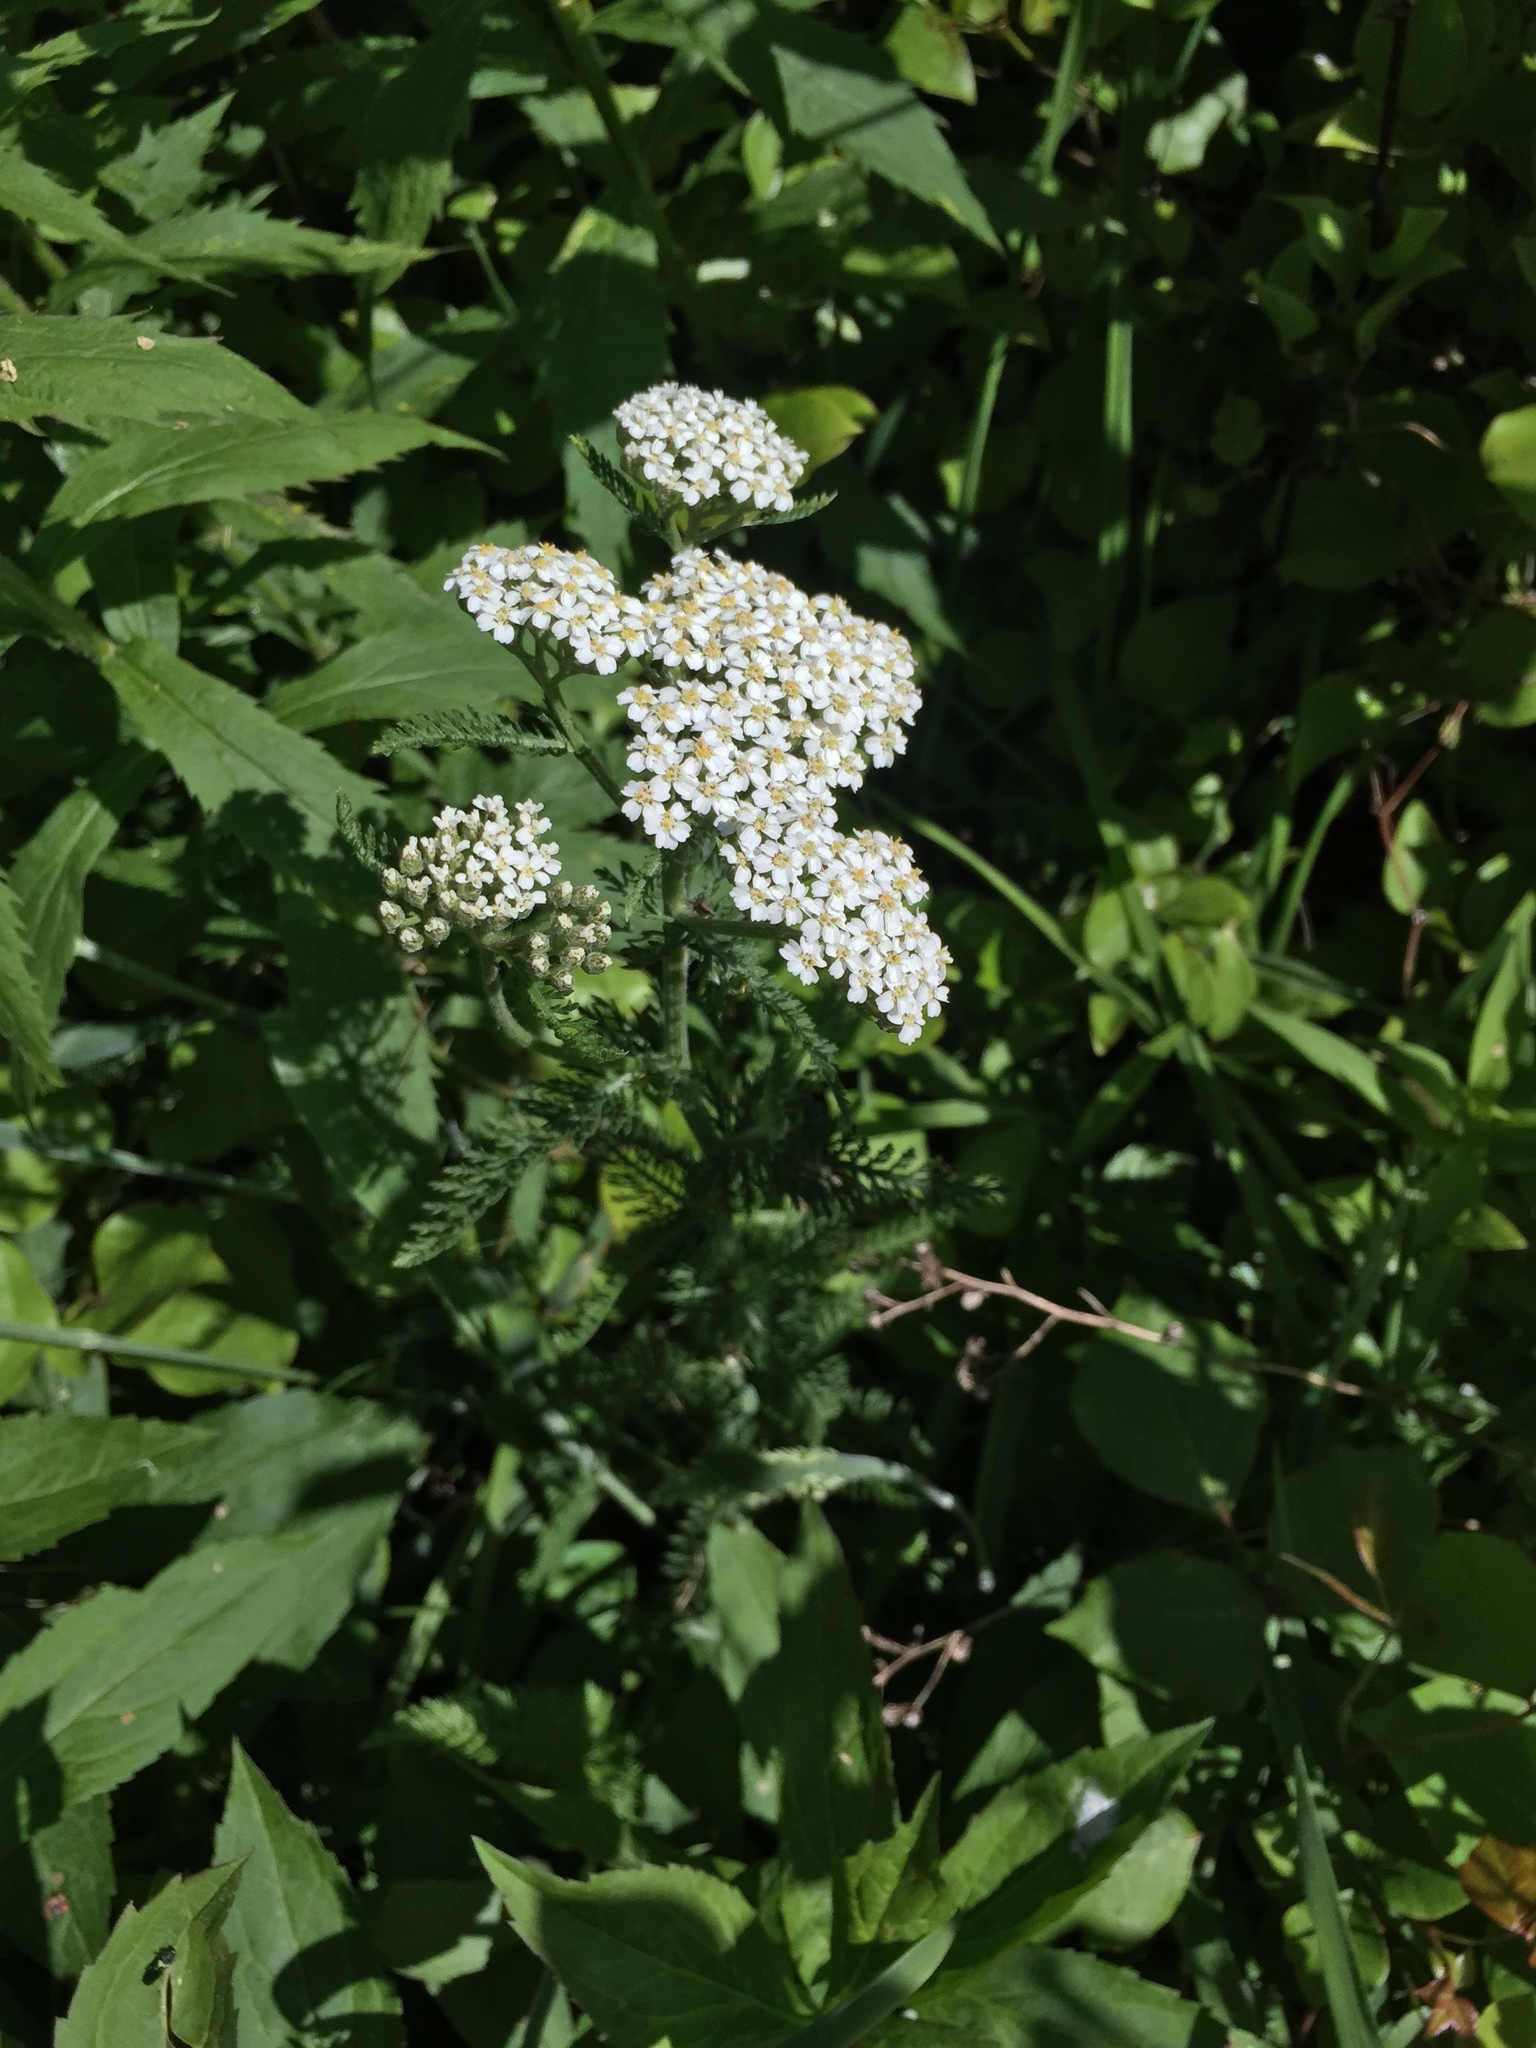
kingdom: Plantae
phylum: Tracheophyta
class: Magnoliopsida
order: Asterales
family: Asteraceae
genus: Achillea
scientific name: Achillea millefolium
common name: Yarrow
